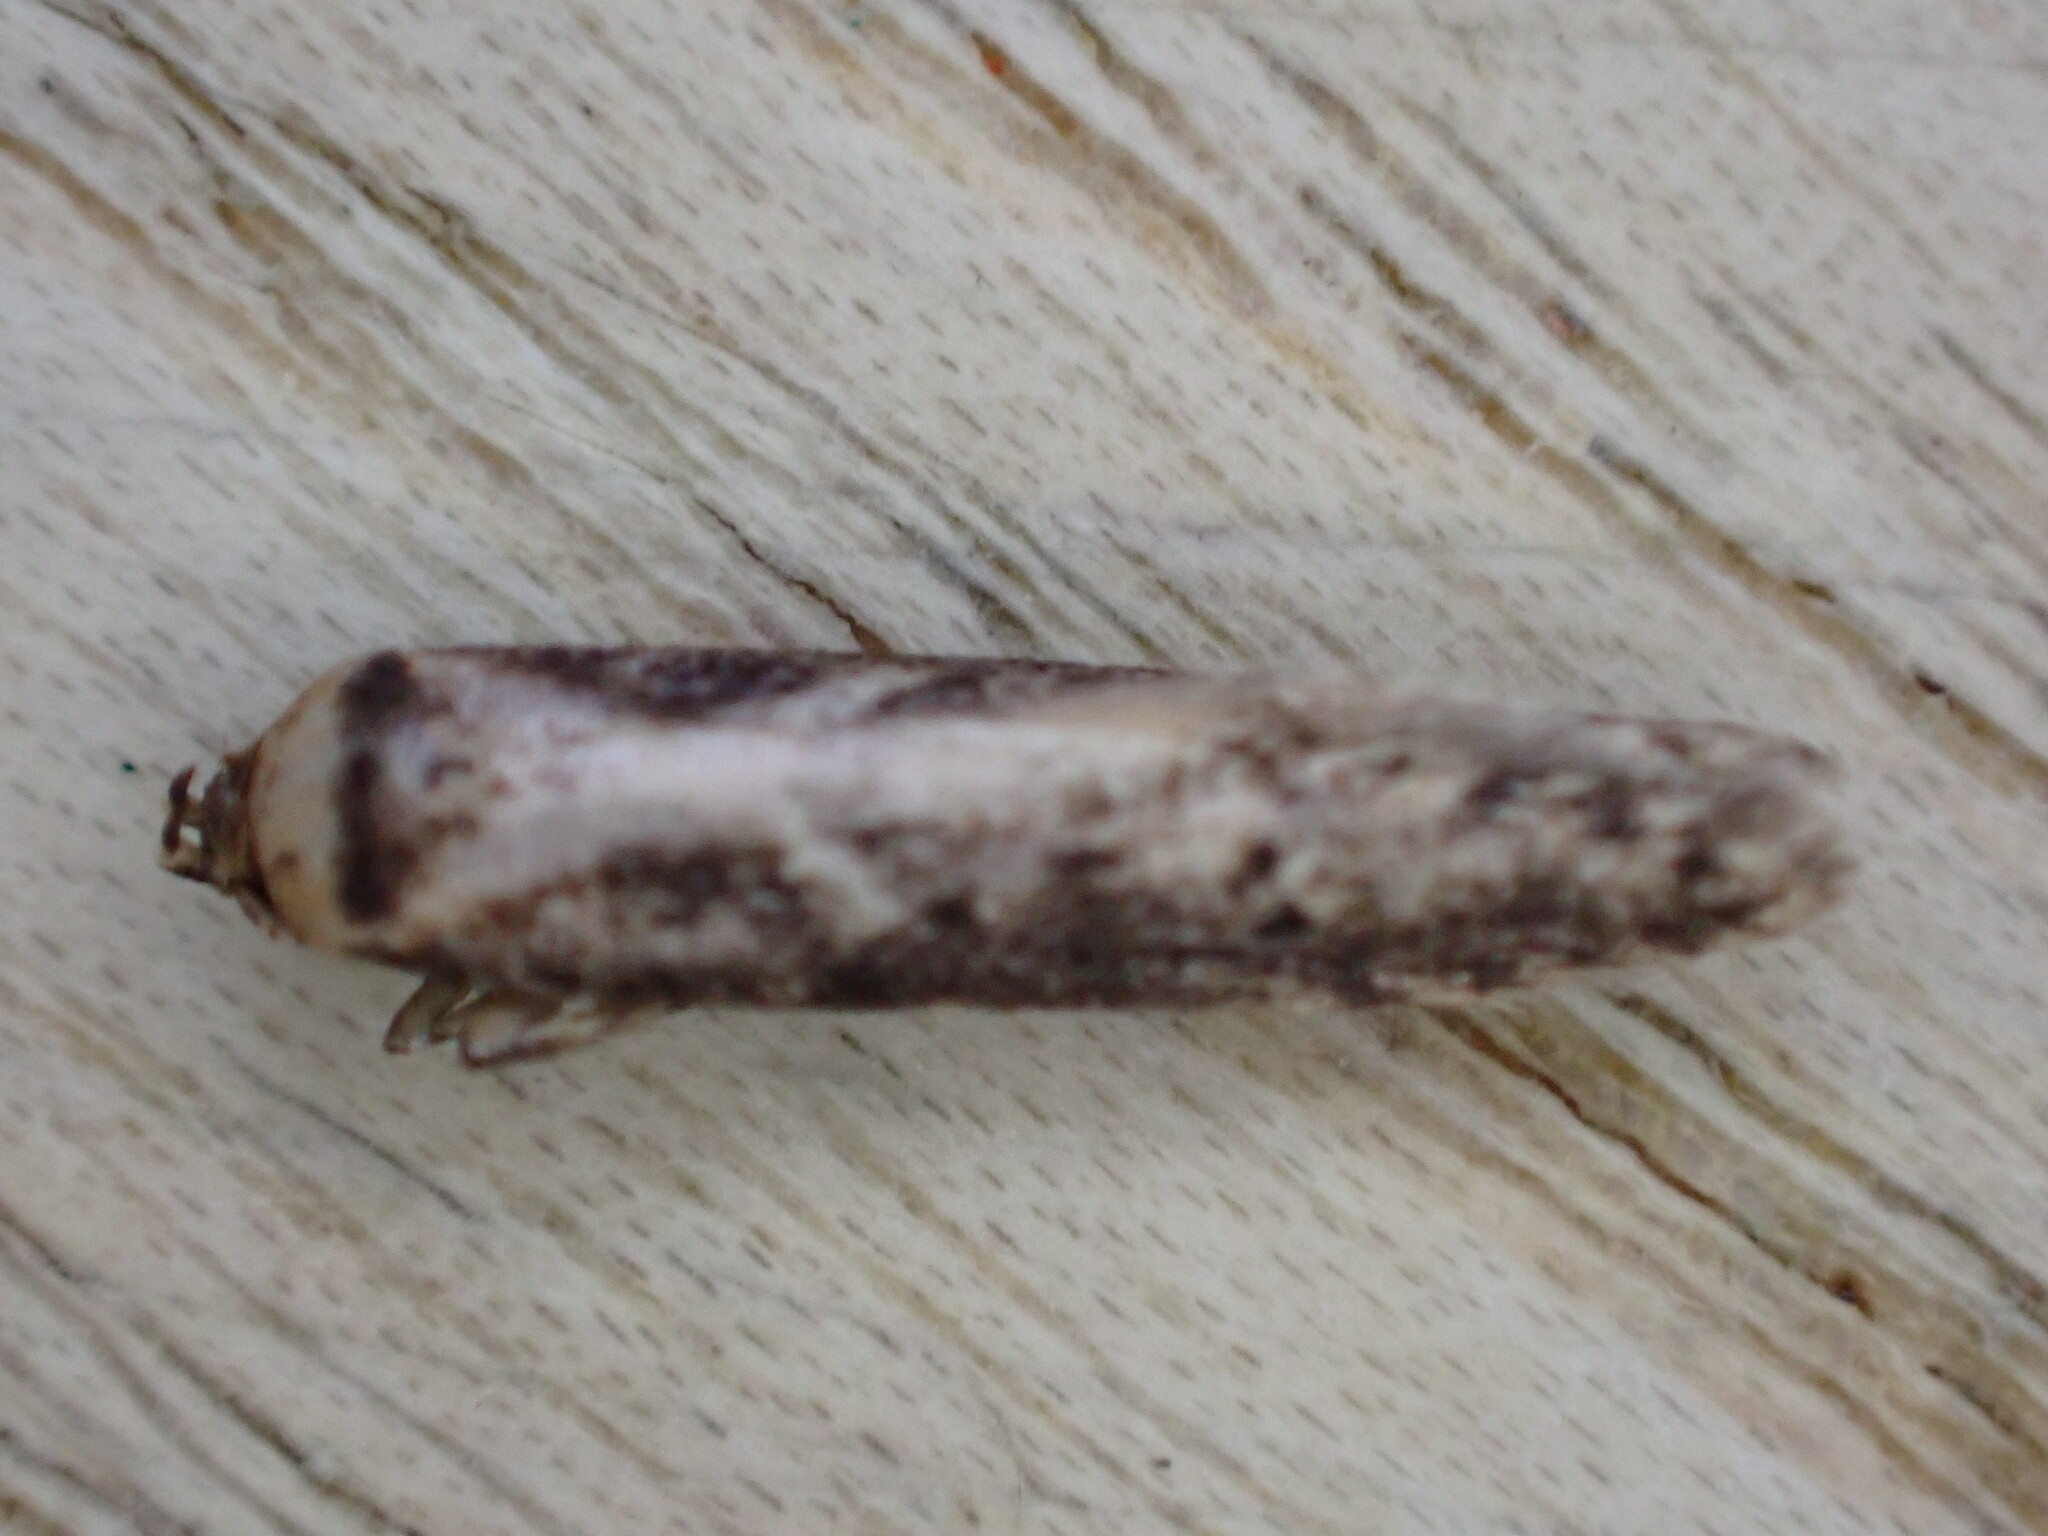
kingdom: Animalia
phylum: Arthropoda
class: Insecta
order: Lepidoptera
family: Blastobasidae
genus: Blastobasis
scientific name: Blastobasis adustella
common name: Dingy dowd
